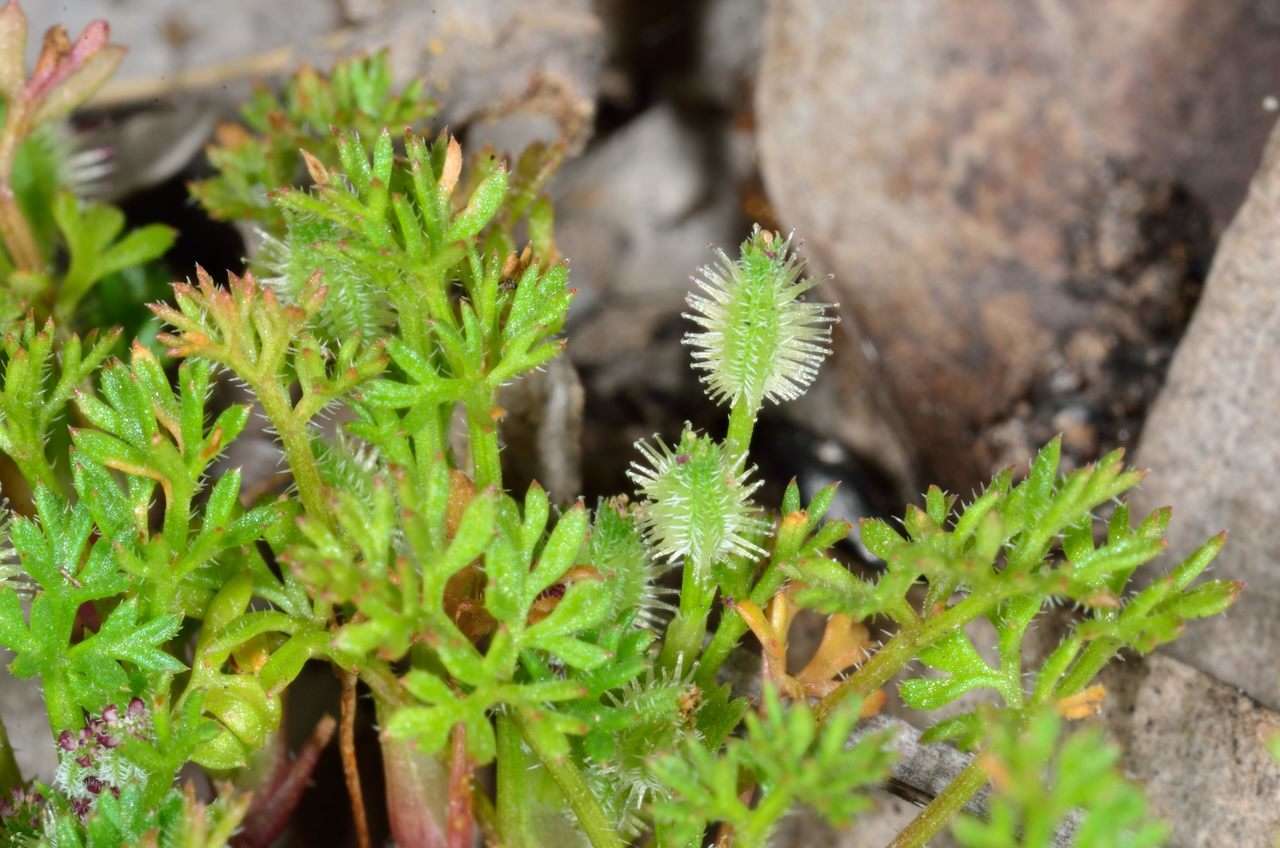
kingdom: Plantae
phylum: Tracheophyta
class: Magnoliopsida
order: Apiales
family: Apiaceae
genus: Daucus
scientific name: Daucus glochidiatus
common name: Australian carrot
